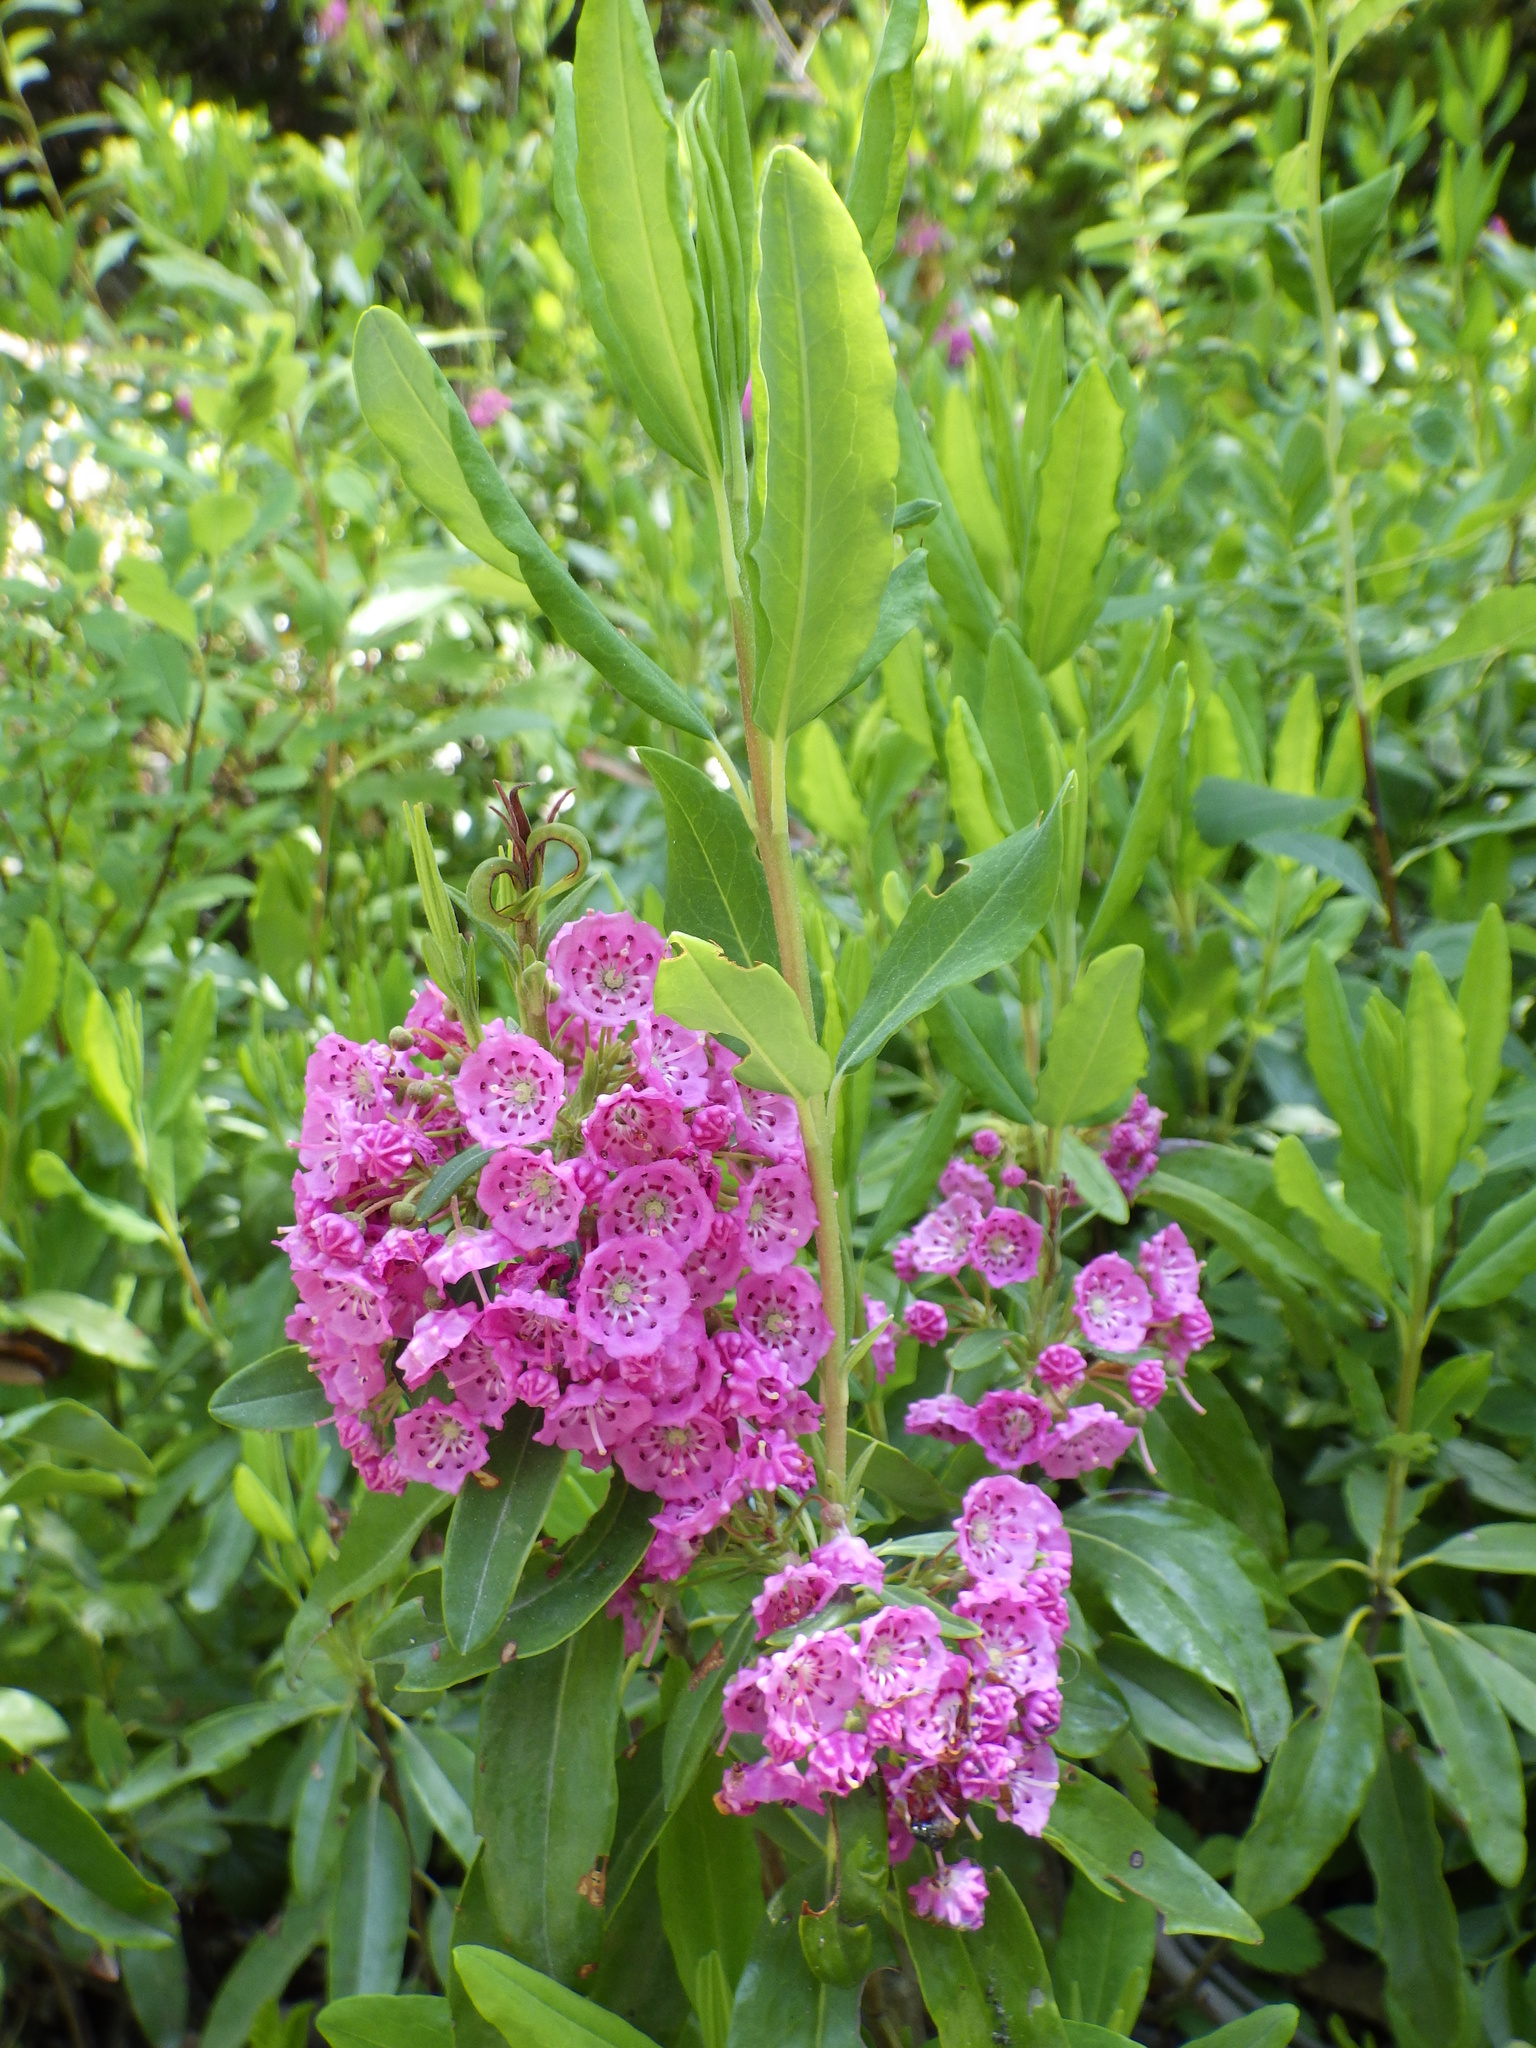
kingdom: Plantae
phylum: Tracheophyta
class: Magnoliopsida
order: Ericales
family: Ericaceae
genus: Kalmia
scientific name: Kalmia angustifolia
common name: Sheep-laurel
